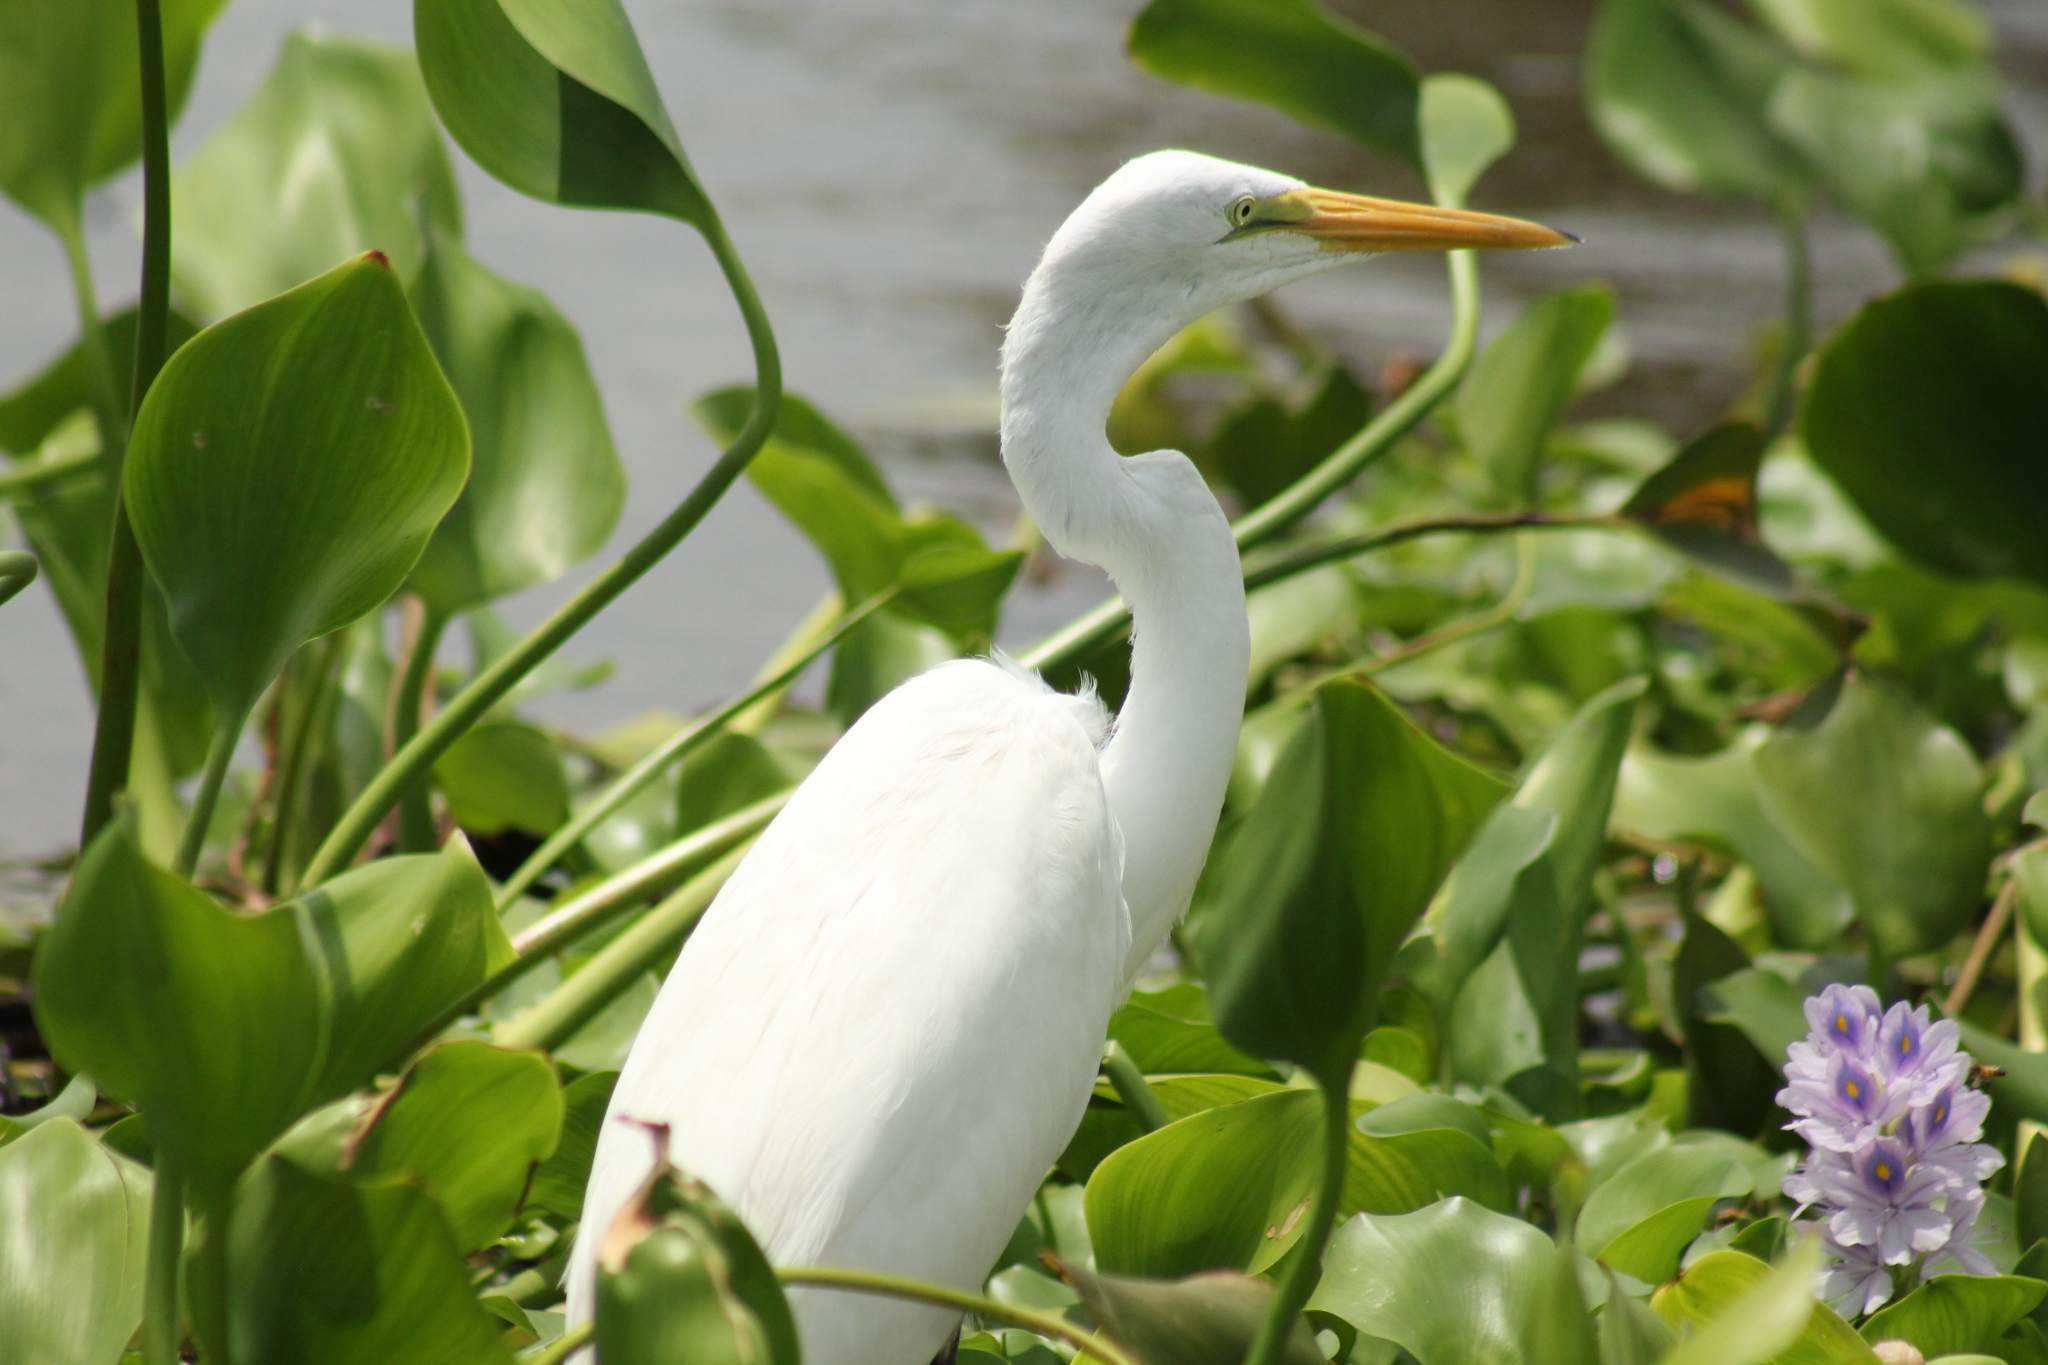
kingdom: Animalia
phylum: Chordata
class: Aves
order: Pelecaniformes
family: Ardeidae
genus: Ardea
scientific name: Ardea alba
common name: Great egret
